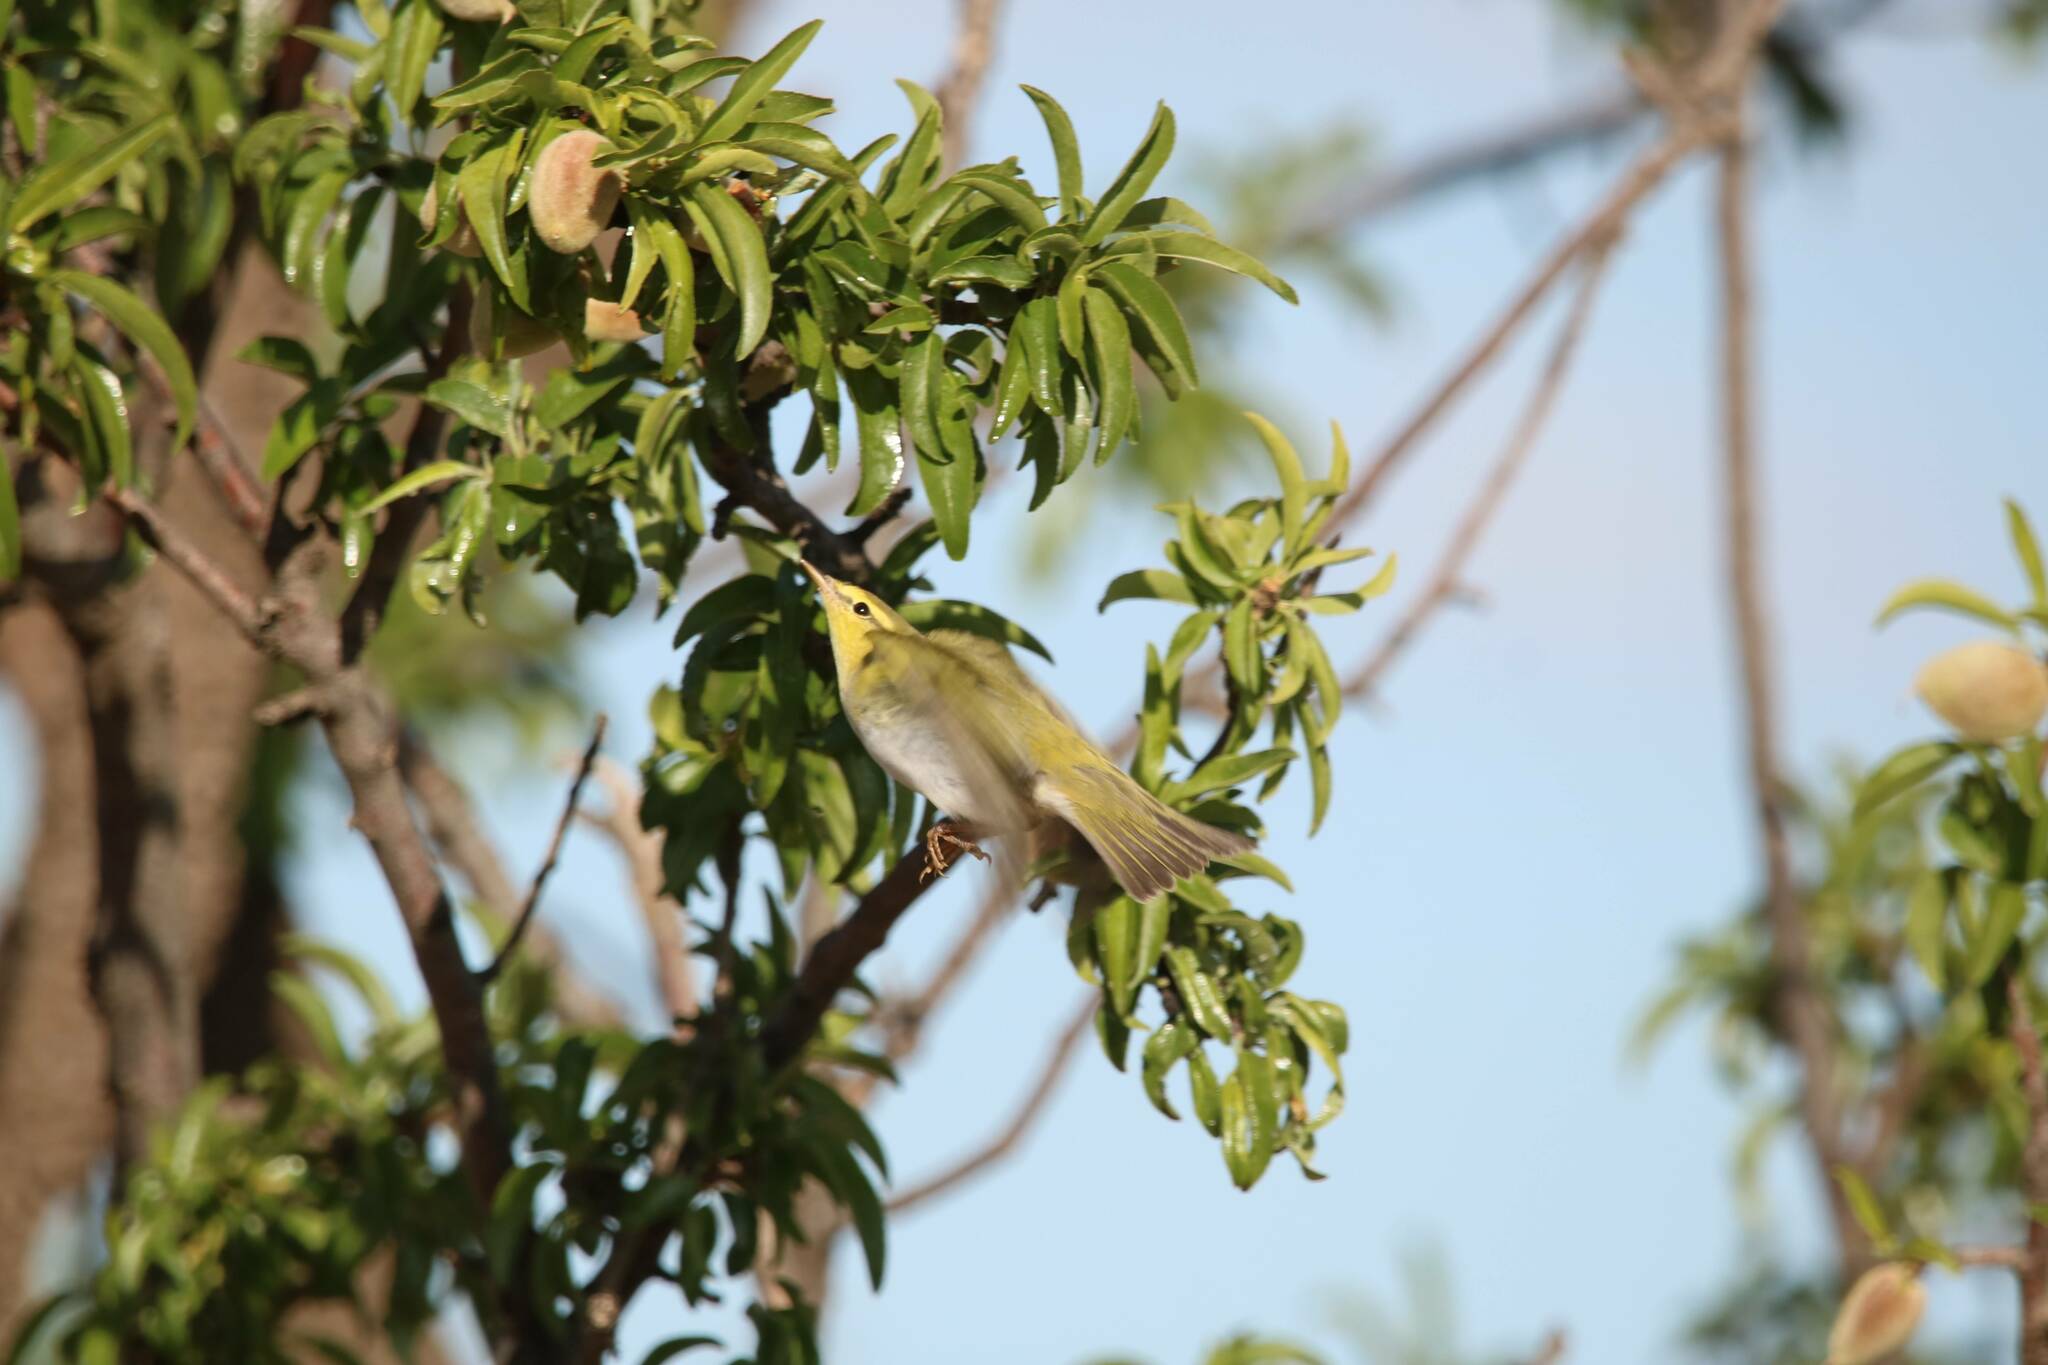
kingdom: Animalia
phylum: Chordata
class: Aves
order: Passeriformes
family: Phylloscopidae
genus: Phylloscopus
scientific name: Phylloscopus sibillatrix
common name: Wood warbler
